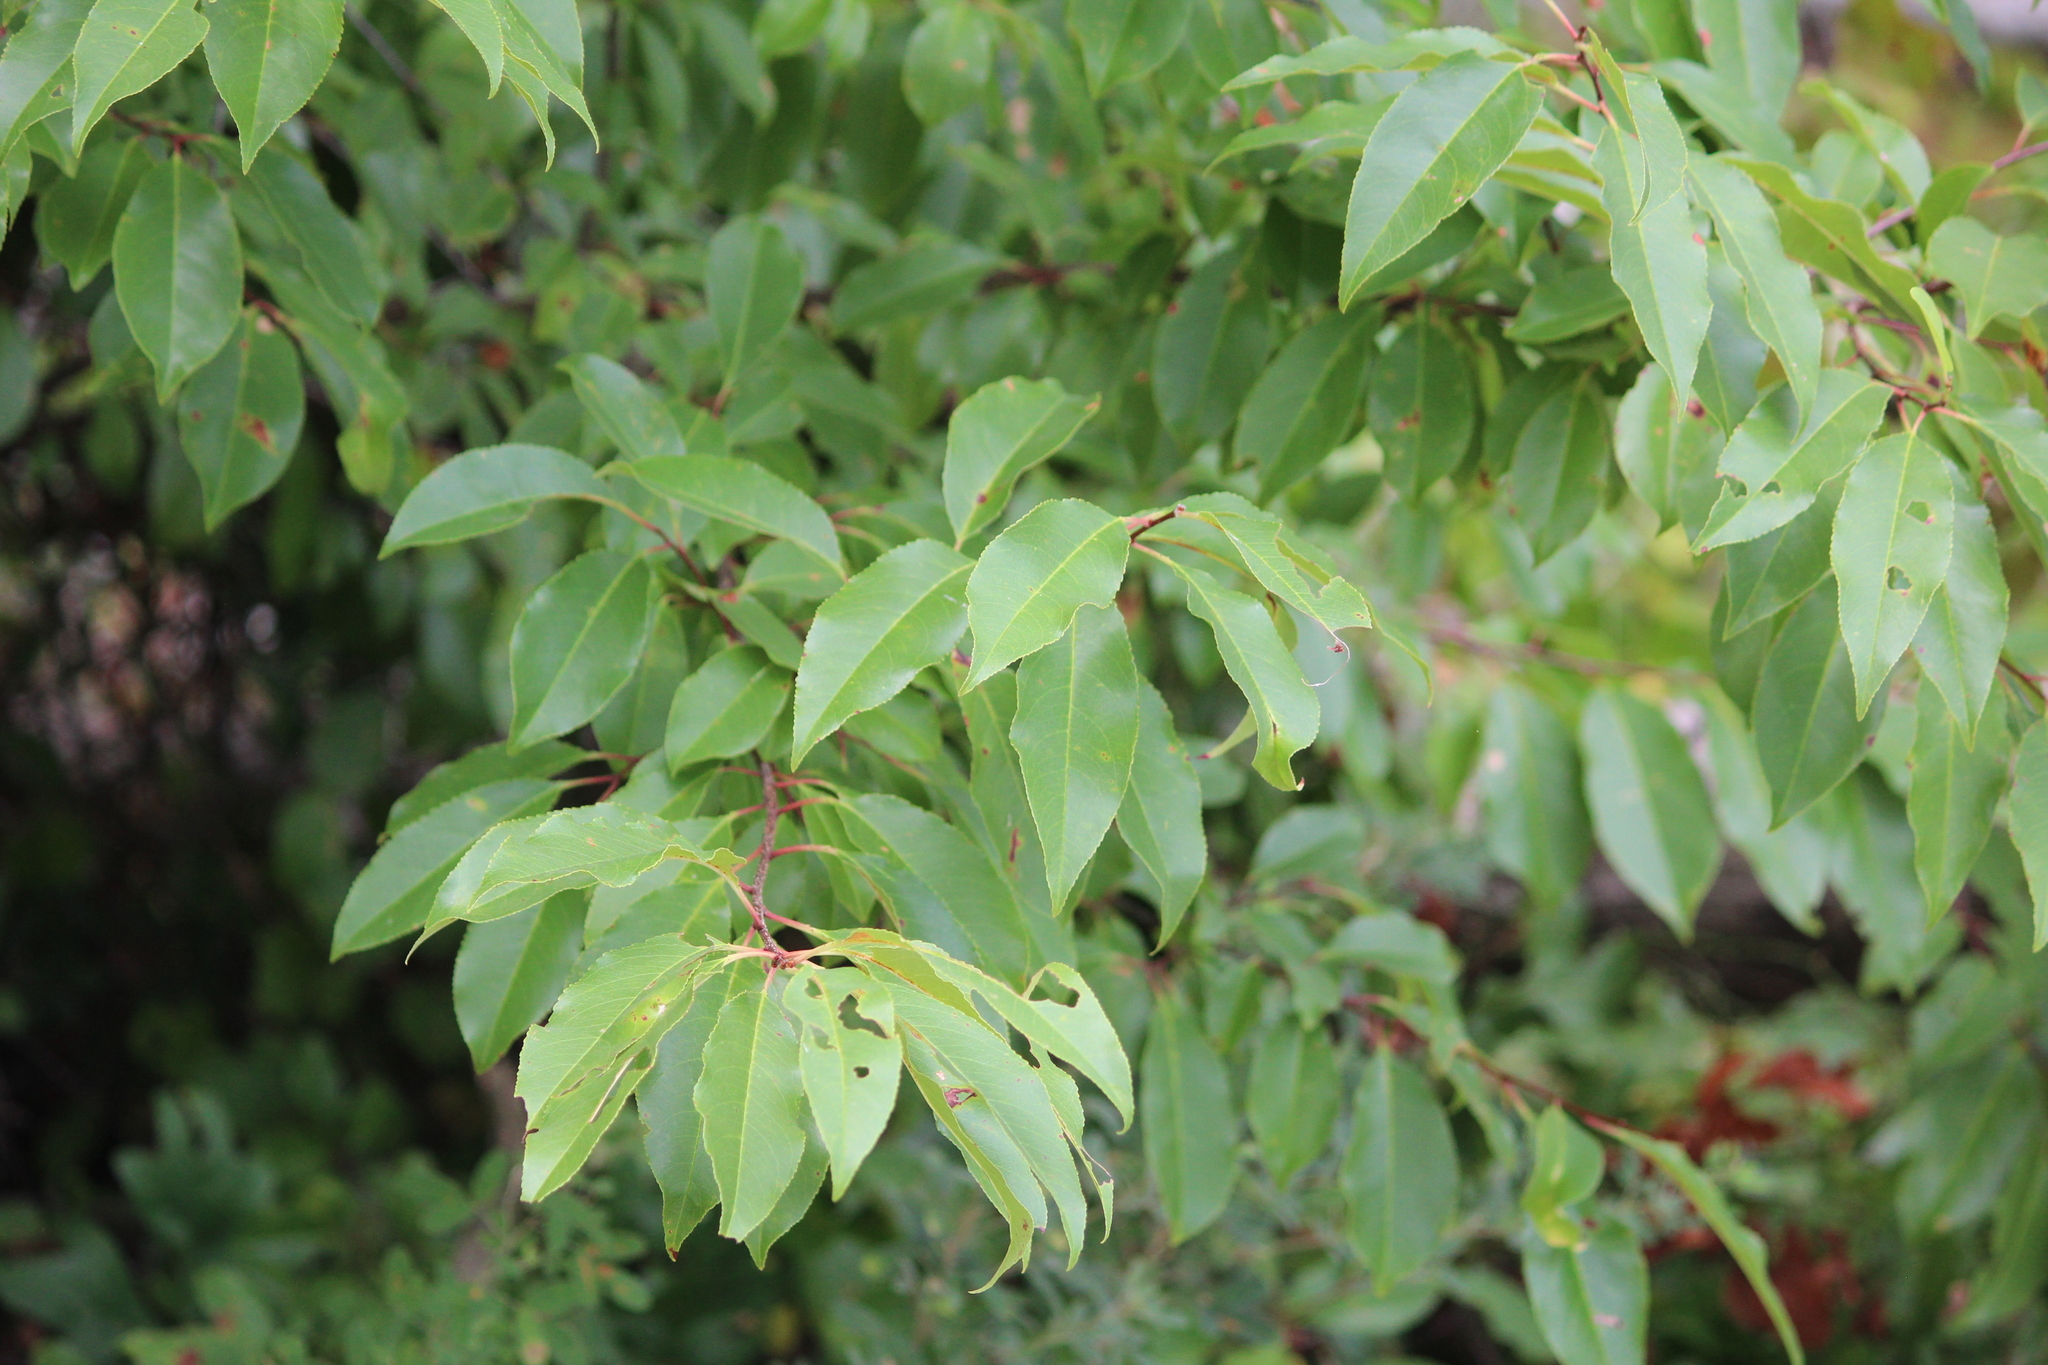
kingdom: Plantae
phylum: Tracheophyta
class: Magnoliopsida
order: Rosales
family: Rosaceae
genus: Prunus
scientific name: Prunus serotina
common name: Black cherry
